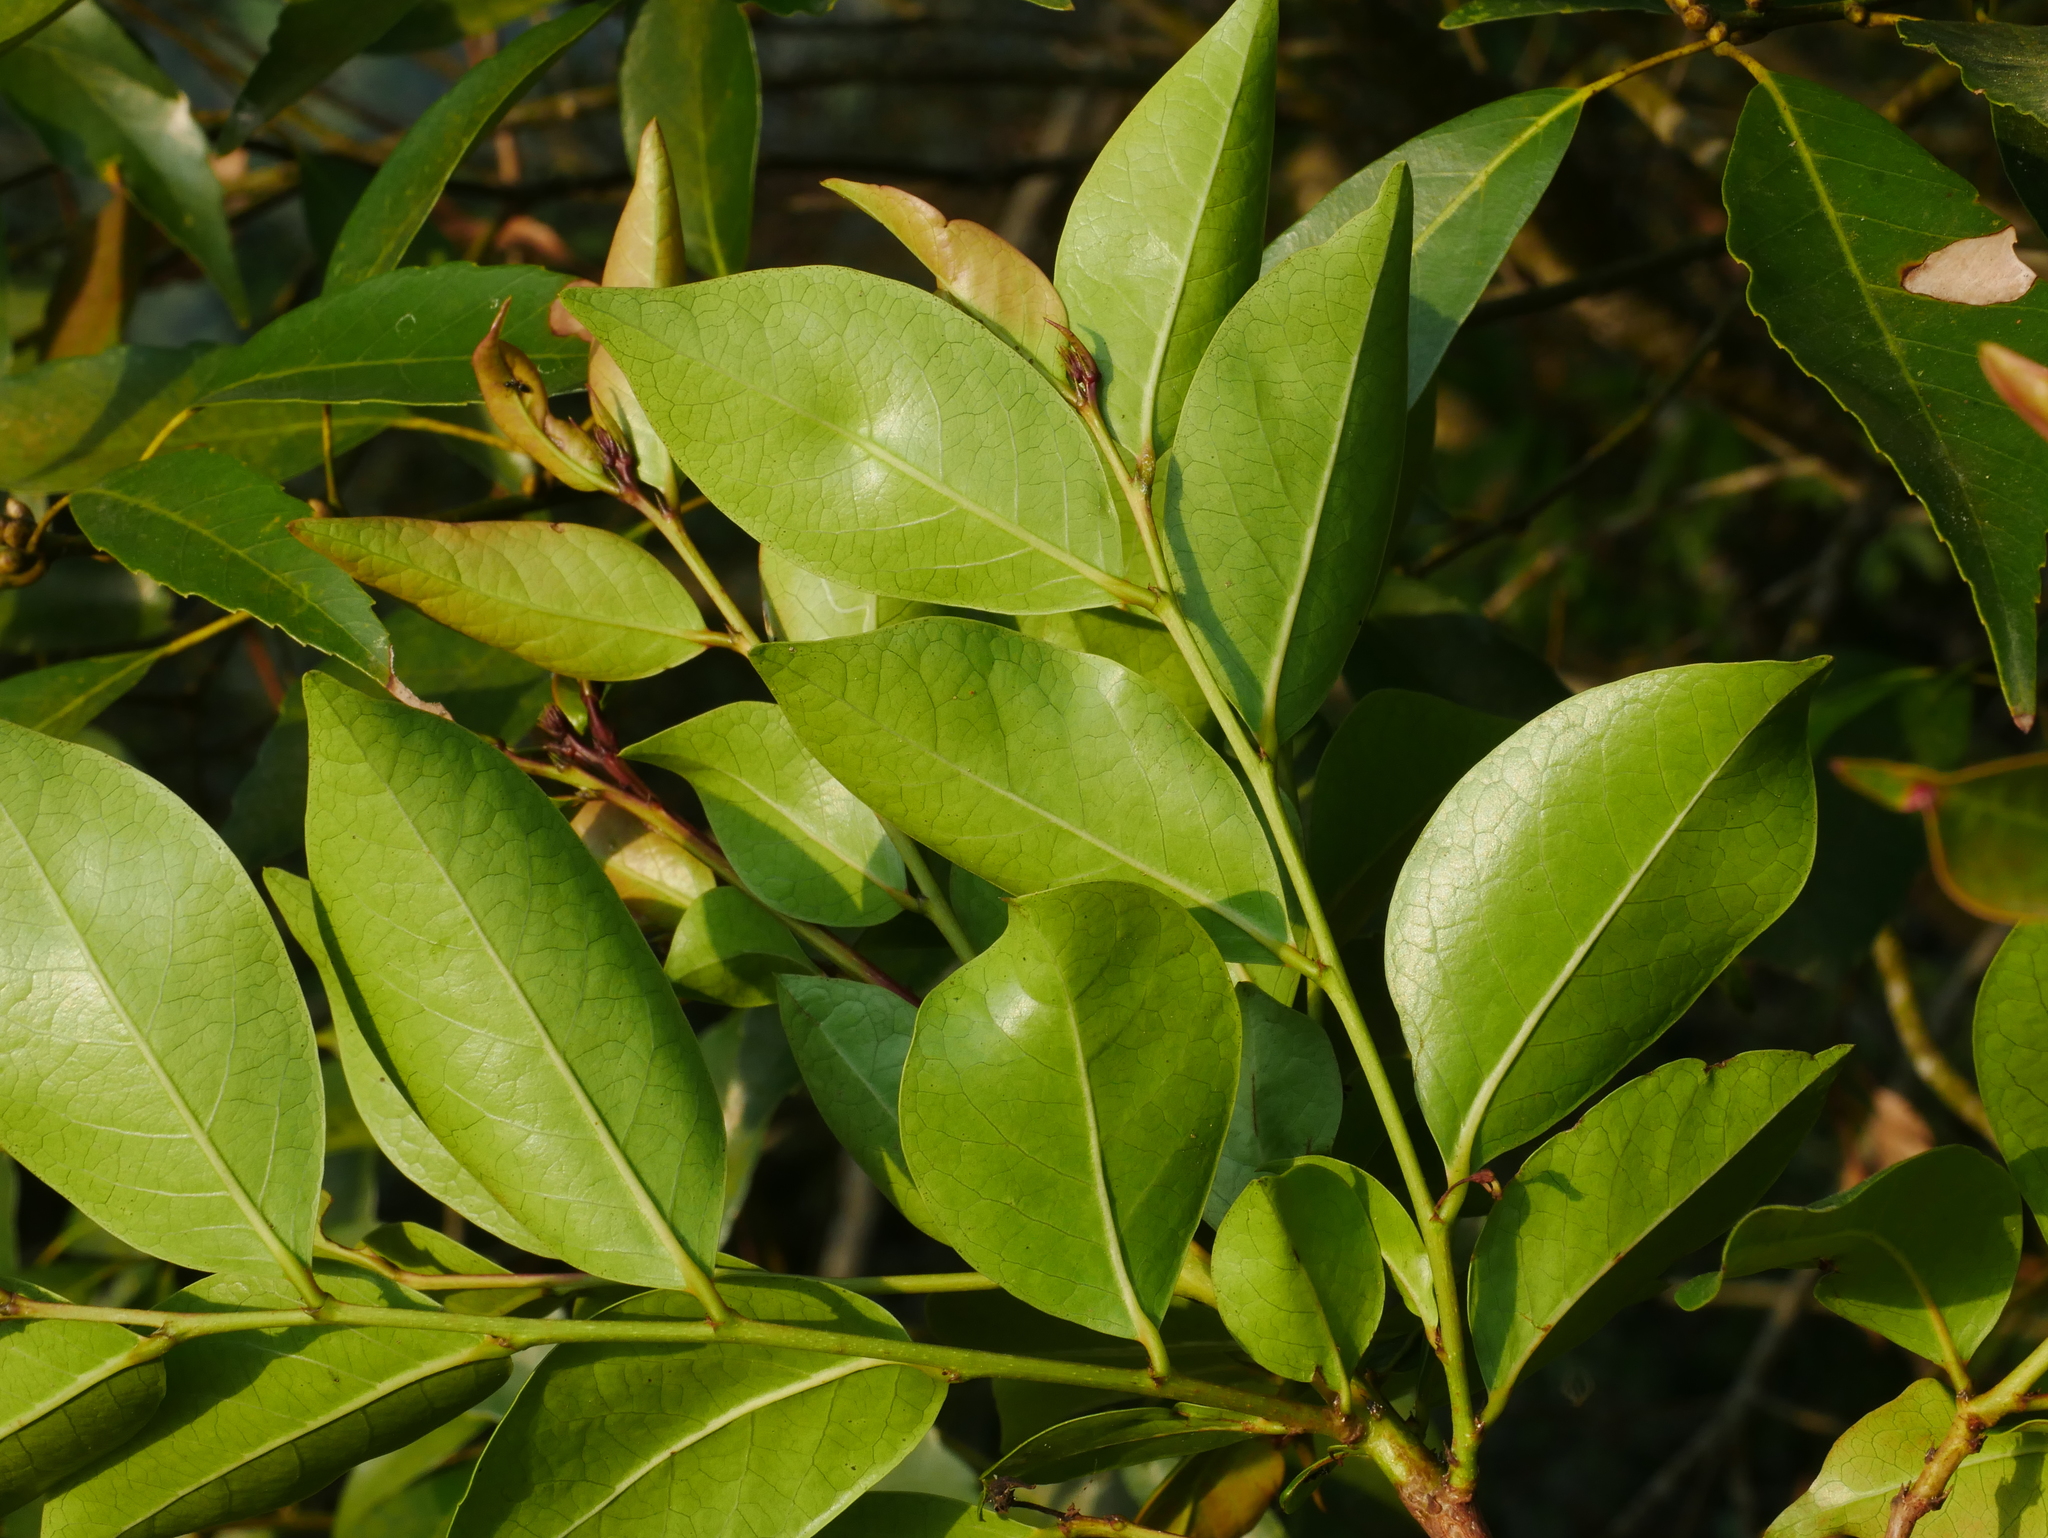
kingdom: Plantae
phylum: Tracheophyta
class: Magnoliopsida
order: Malpighiales
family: Phyllanthaceae
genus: Glochidion
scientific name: Glochidion rubrum
